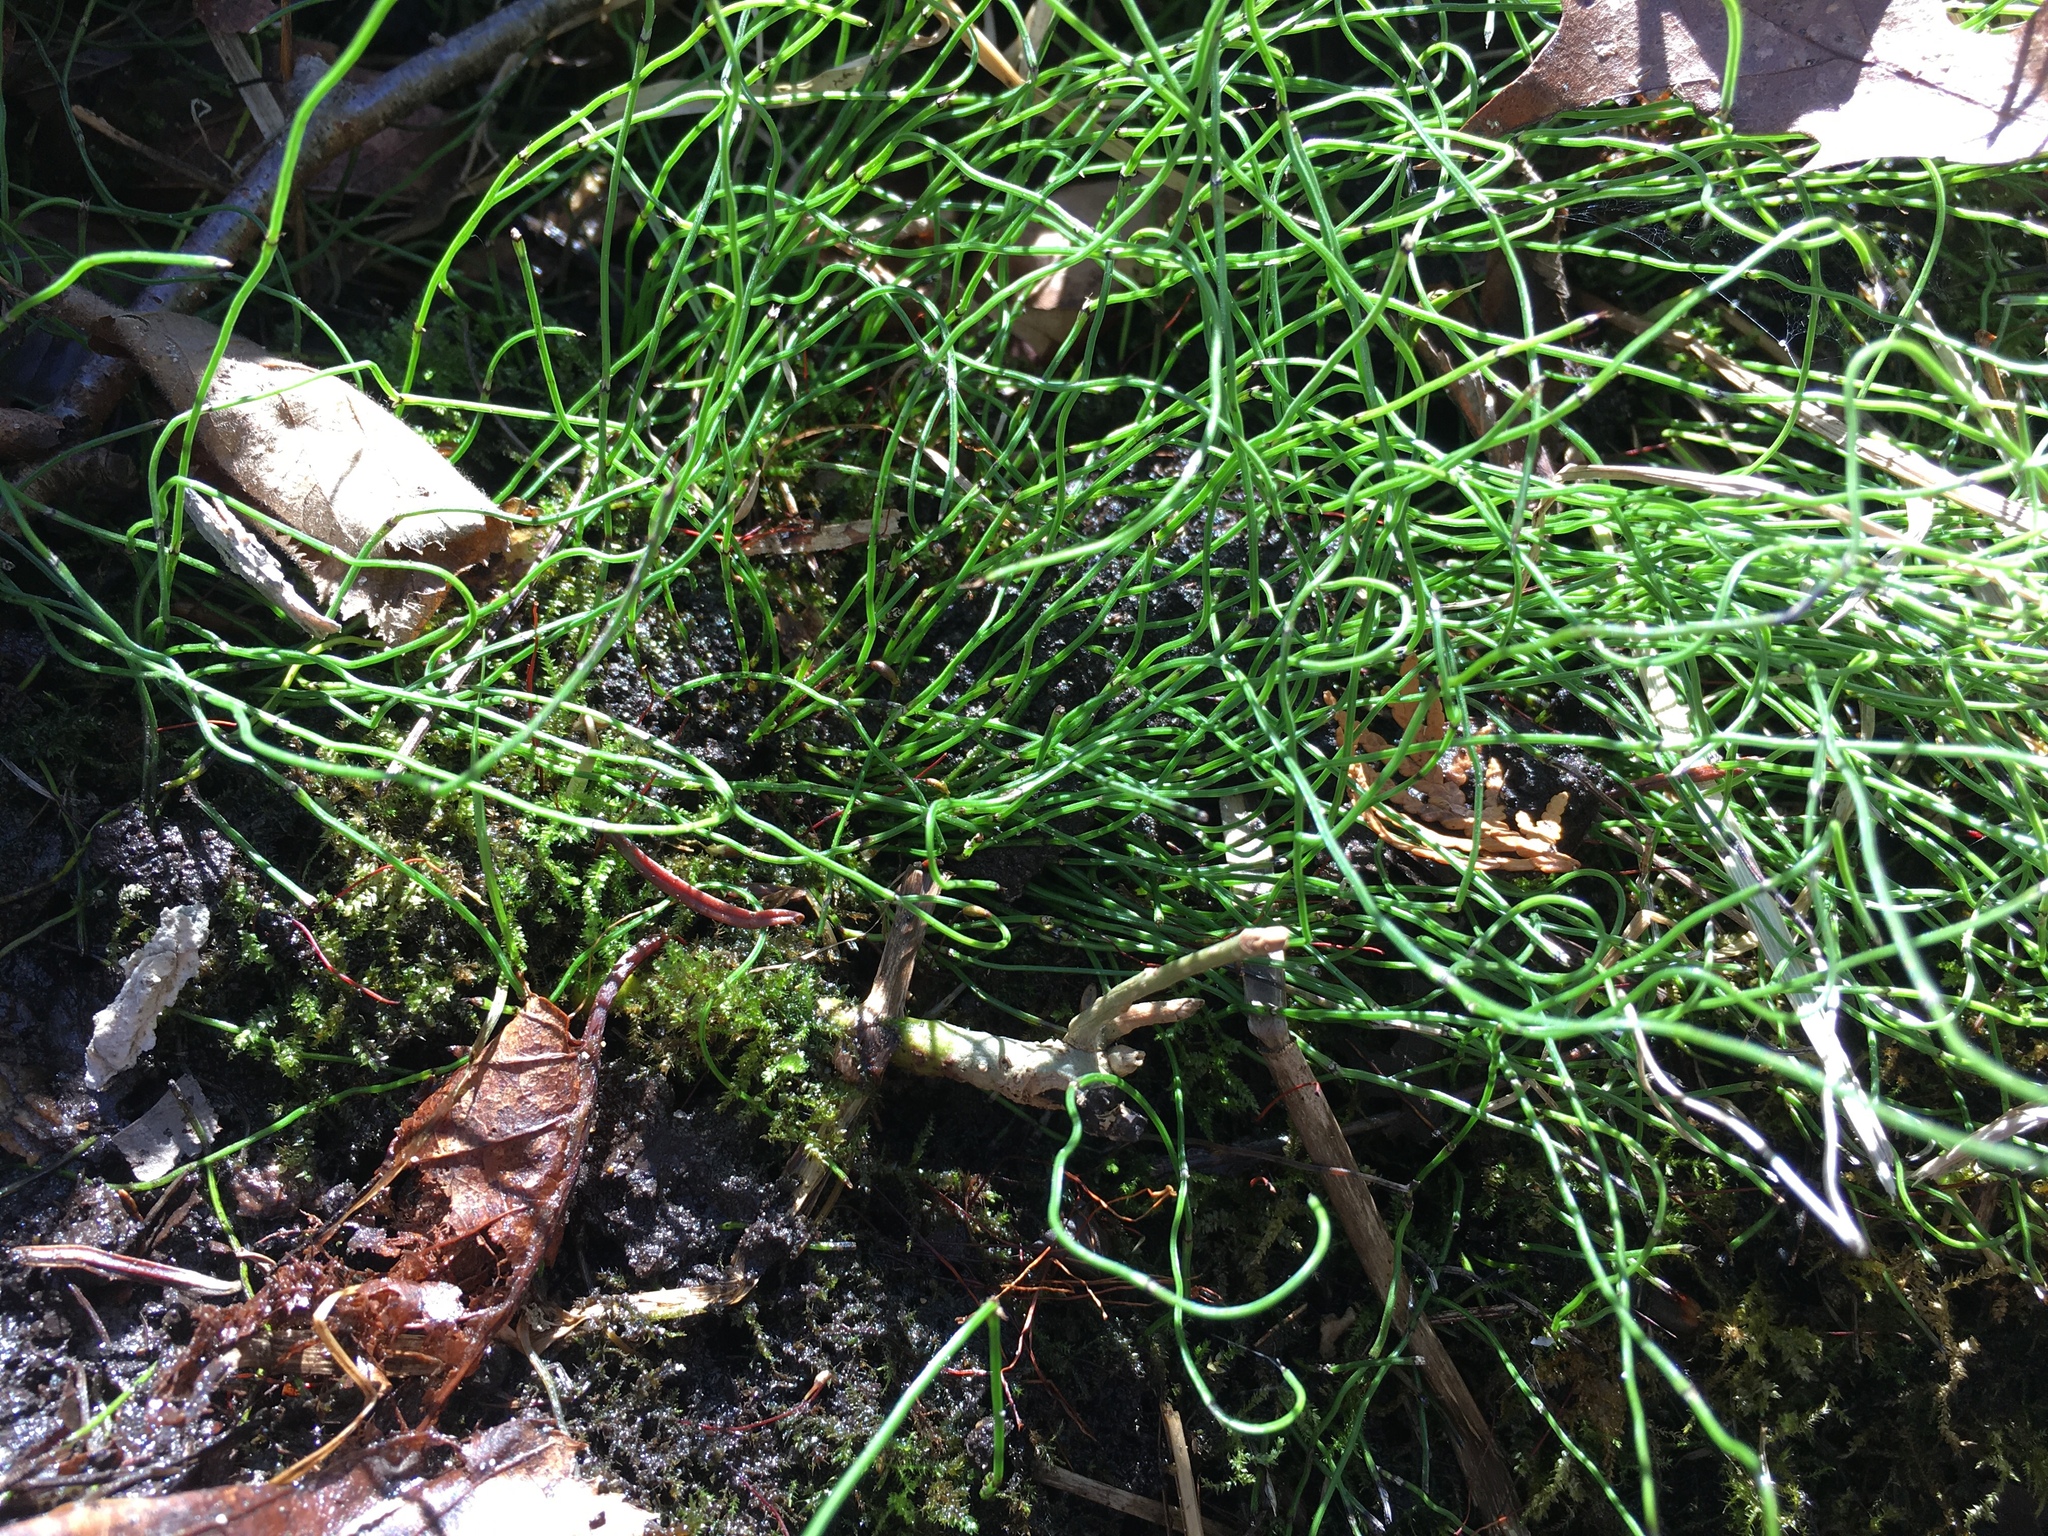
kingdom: Plantae
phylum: Tracheophyta
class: Polypodiopsida
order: Equisetales
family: Equisetaceae
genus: Equisetum
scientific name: Equisetum scirpoides
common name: Delicate horsetail
